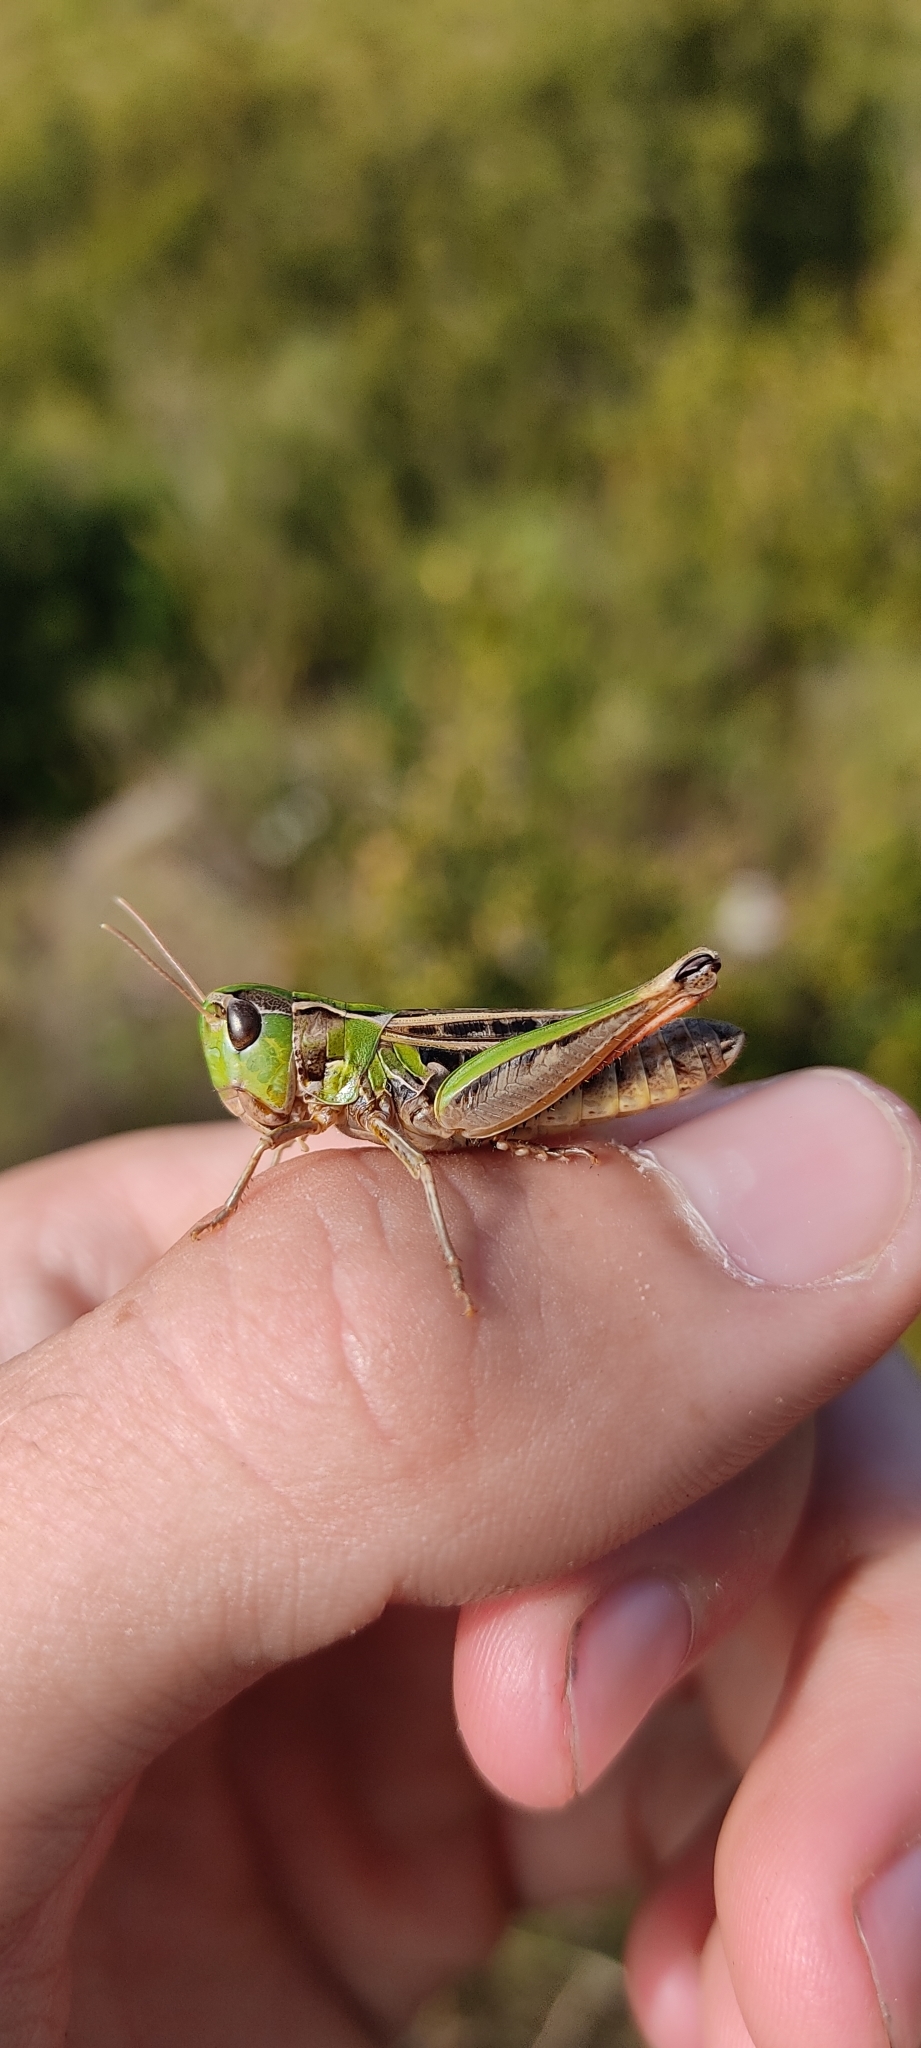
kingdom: Animalia
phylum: Arthropoda
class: Insecta
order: Orthoptera
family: Acrididae
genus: Stenobothrus
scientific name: Stenobothrus nigromaculatus
